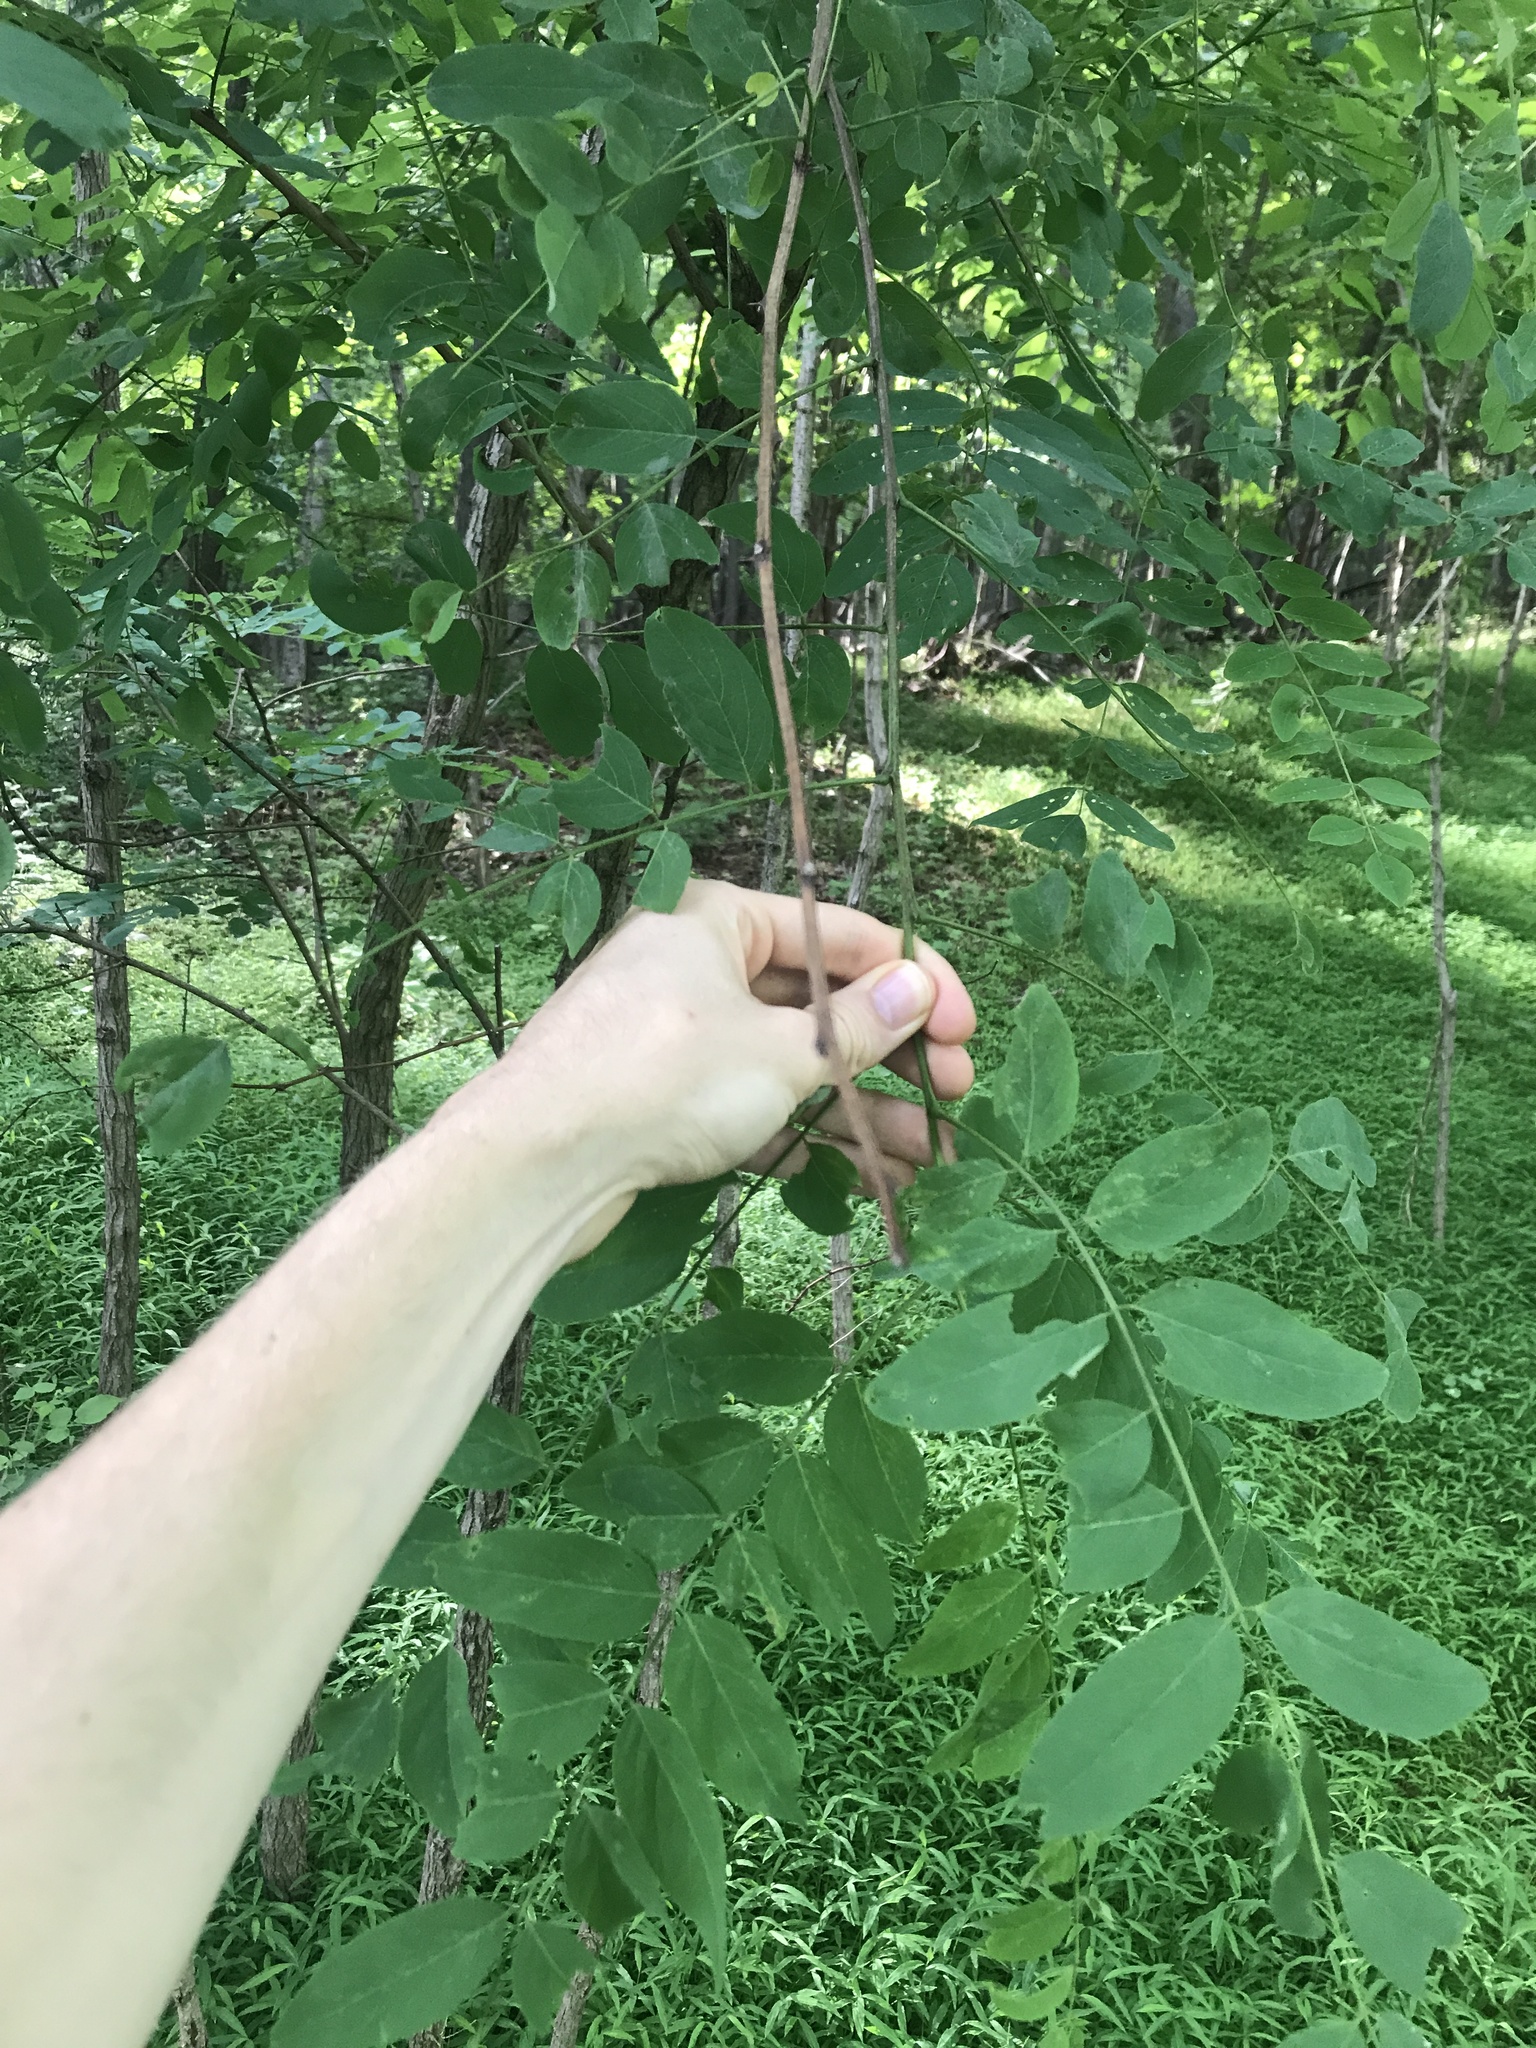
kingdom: Plantae
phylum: Tracheophyta
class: Magnoliopsida
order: Fabales
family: Fabaceae
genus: Robinia
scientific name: Robinia pseudoacacia
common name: Black locust
